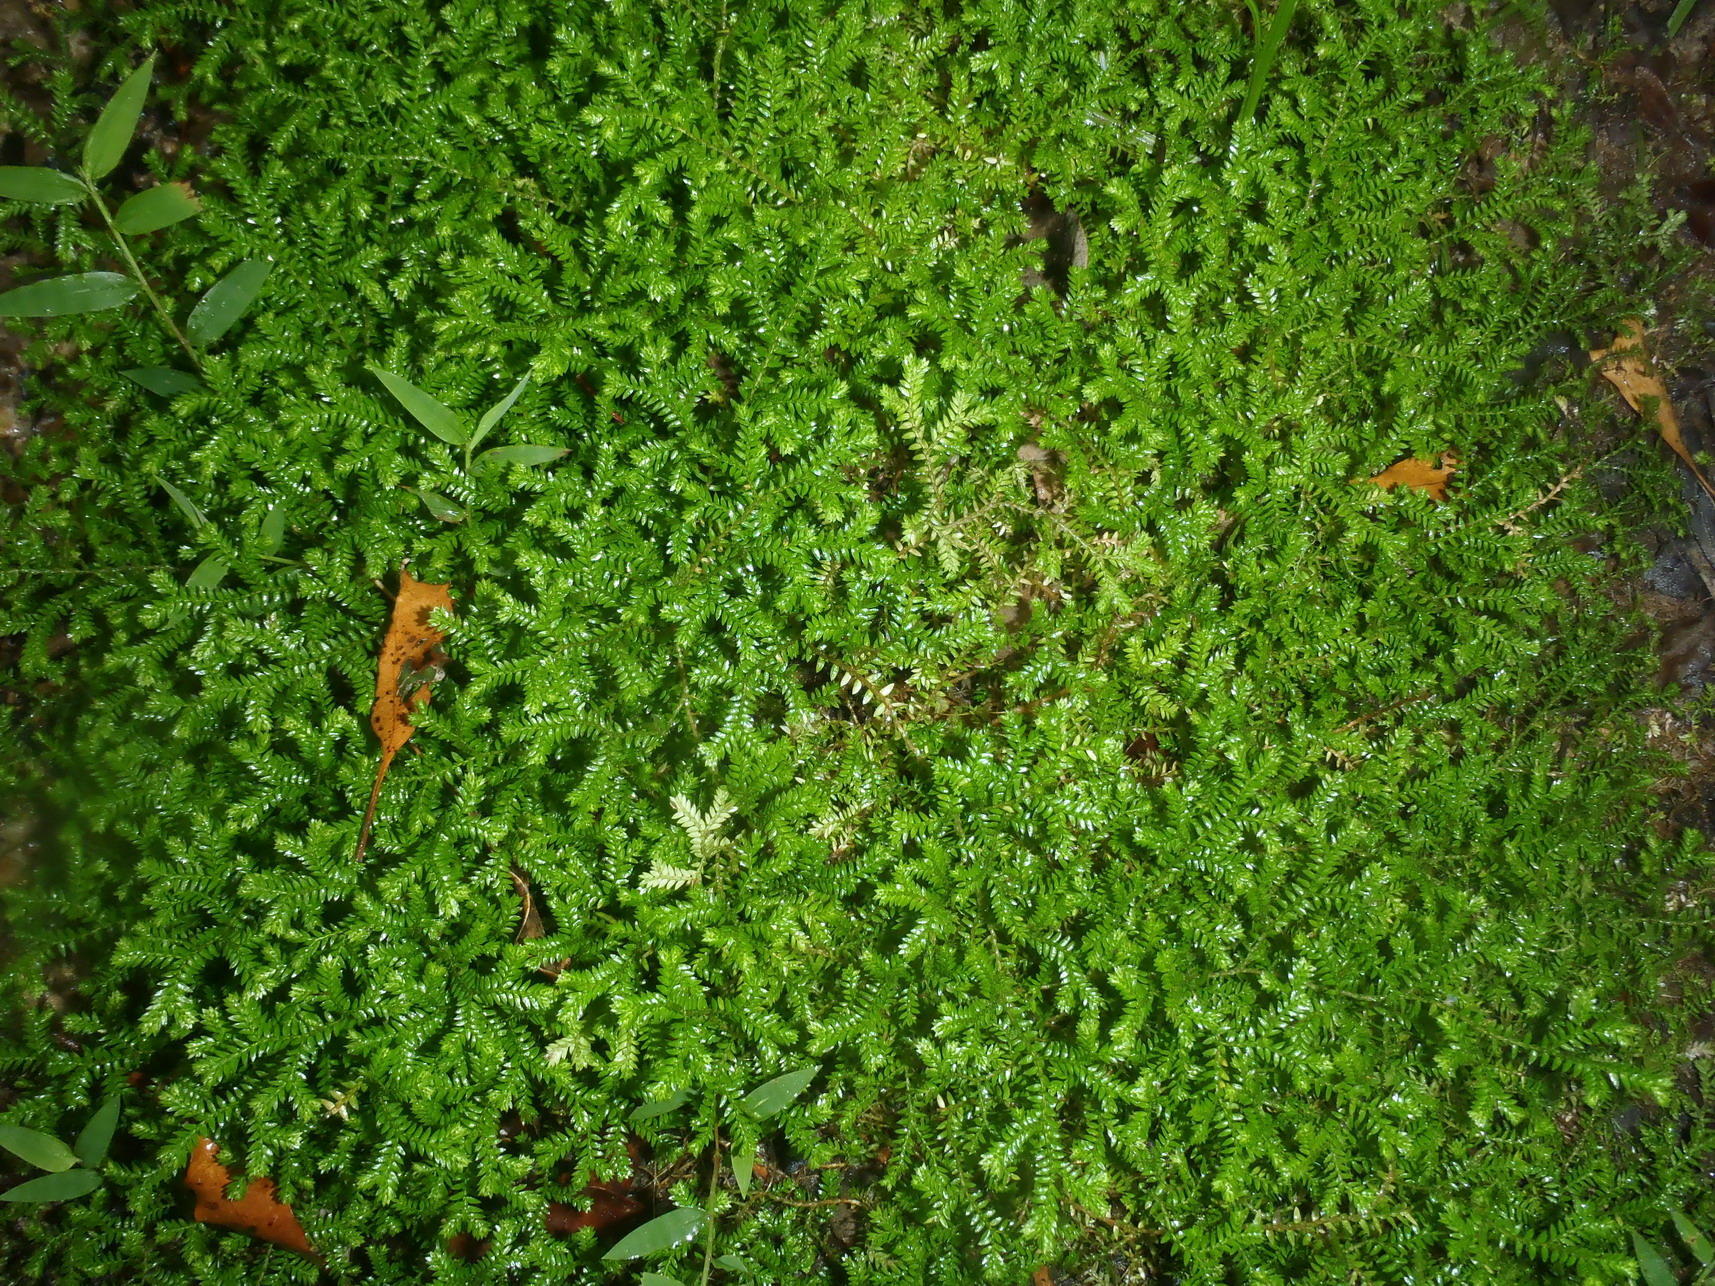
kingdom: Plantae
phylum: Tracheophyta
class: Lycopodiopsida
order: Selaginellales
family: Selaginellaceae
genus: Selaginella
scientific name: Selaginella kraussiana
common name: Krauss' spikemoss
